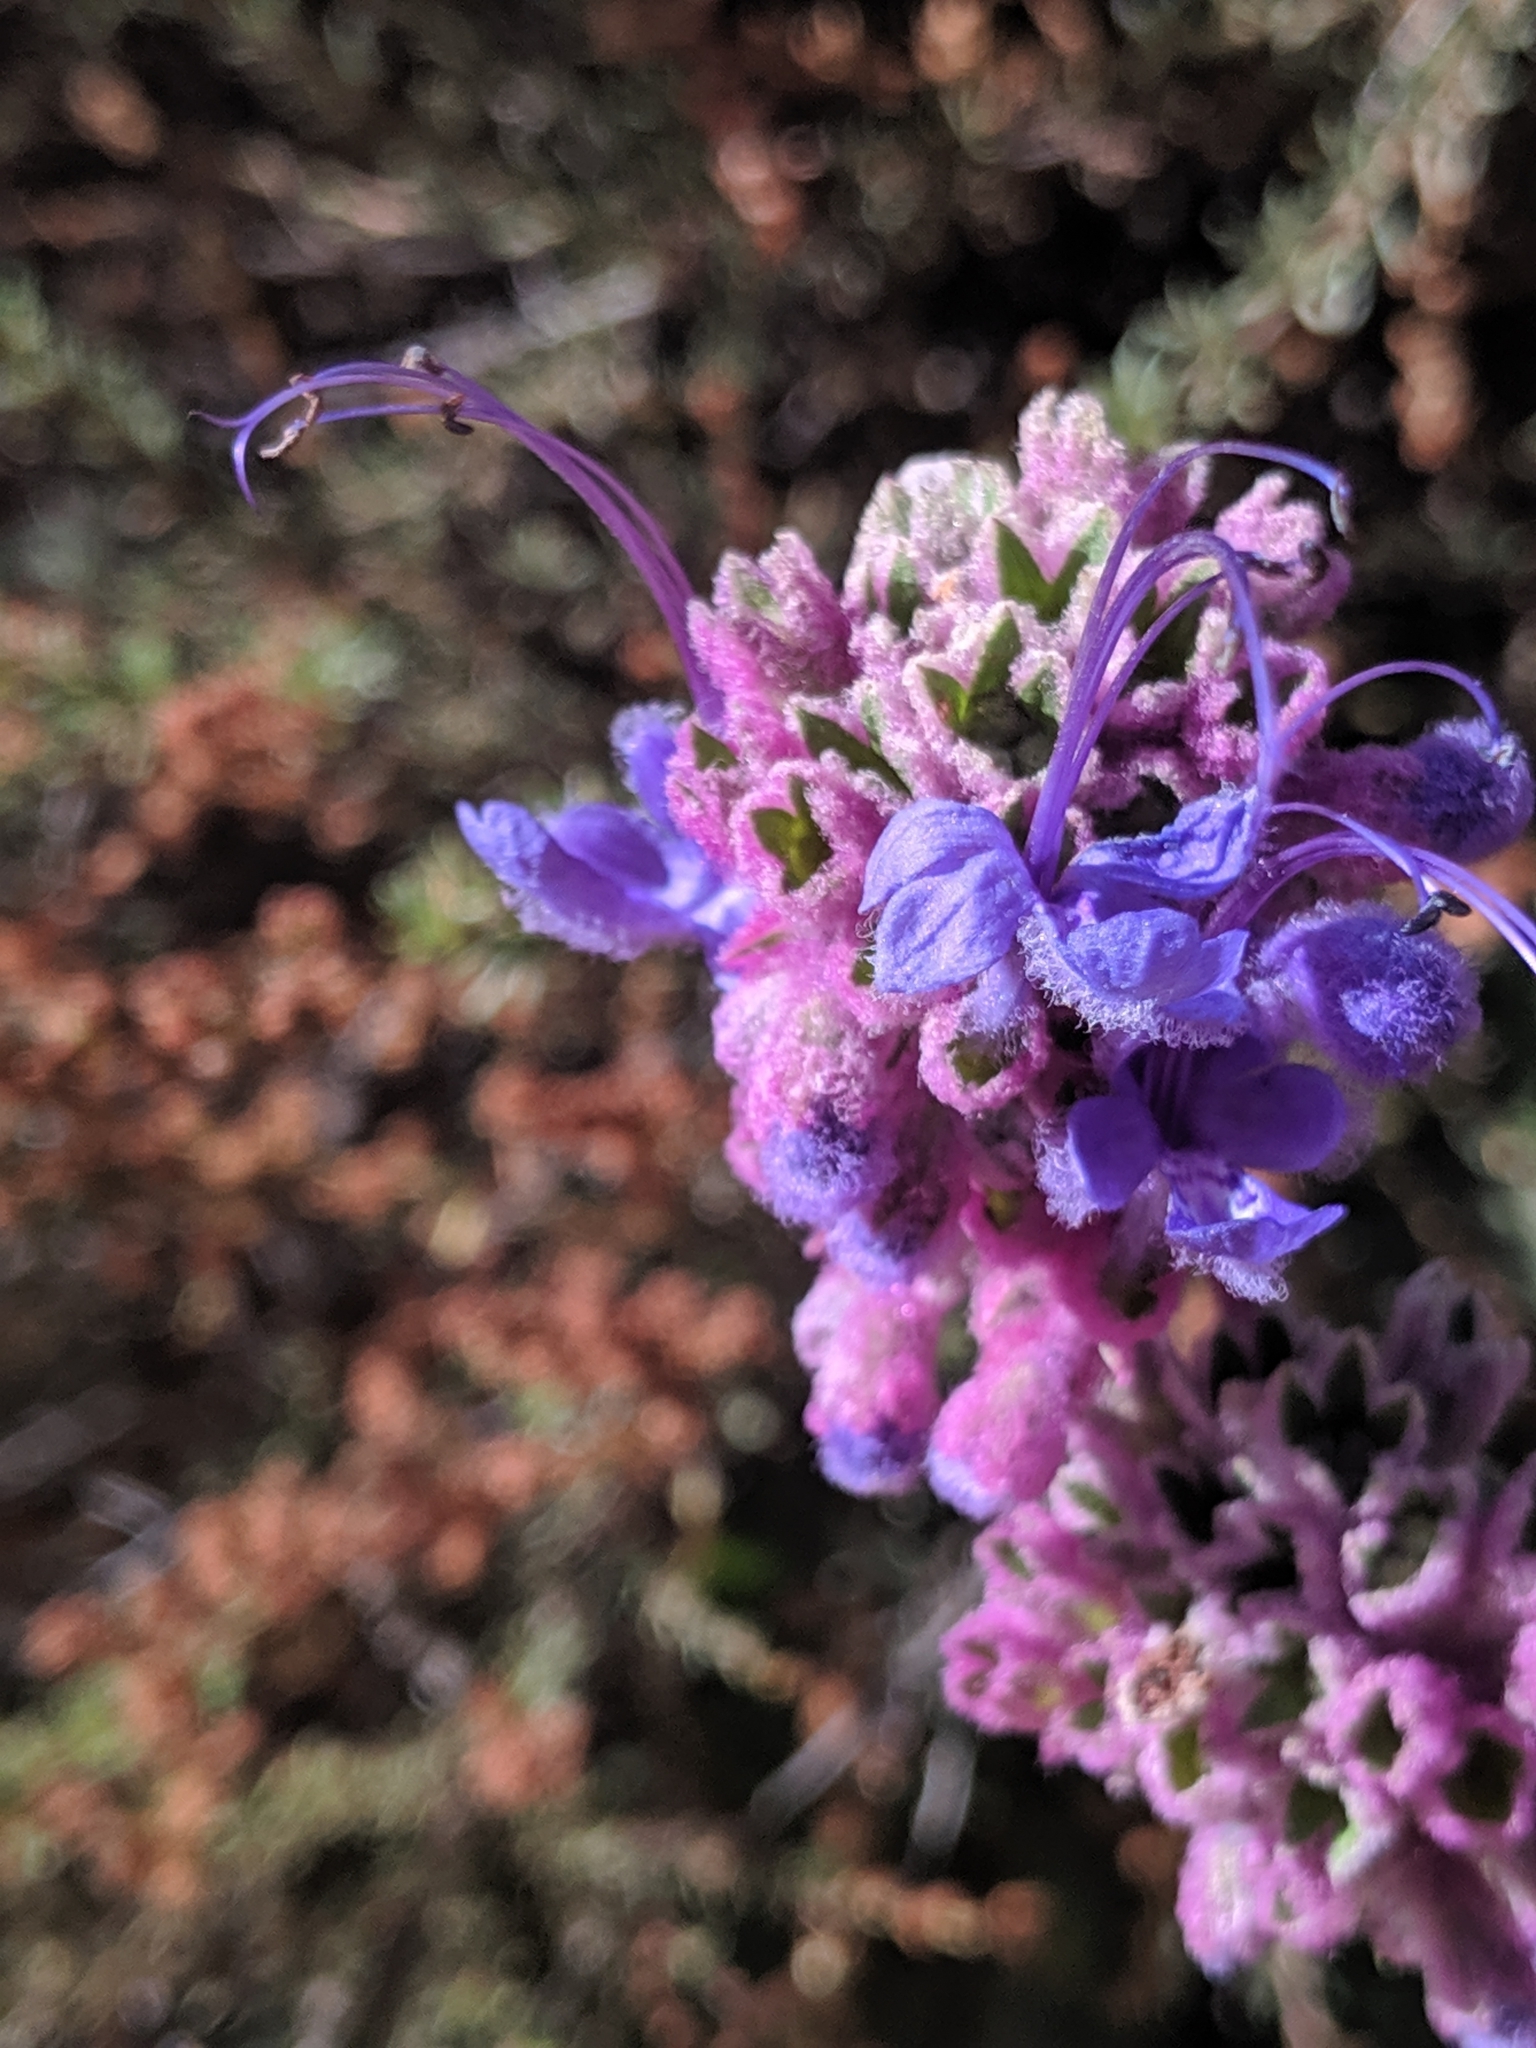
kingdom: Plantae
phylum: Tracheophyta
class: Magnoliopsida
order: Lamiales
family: Lamiaceae
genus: Trichostema
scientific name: Trichostema lanatum
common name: Woolly bluecurls
